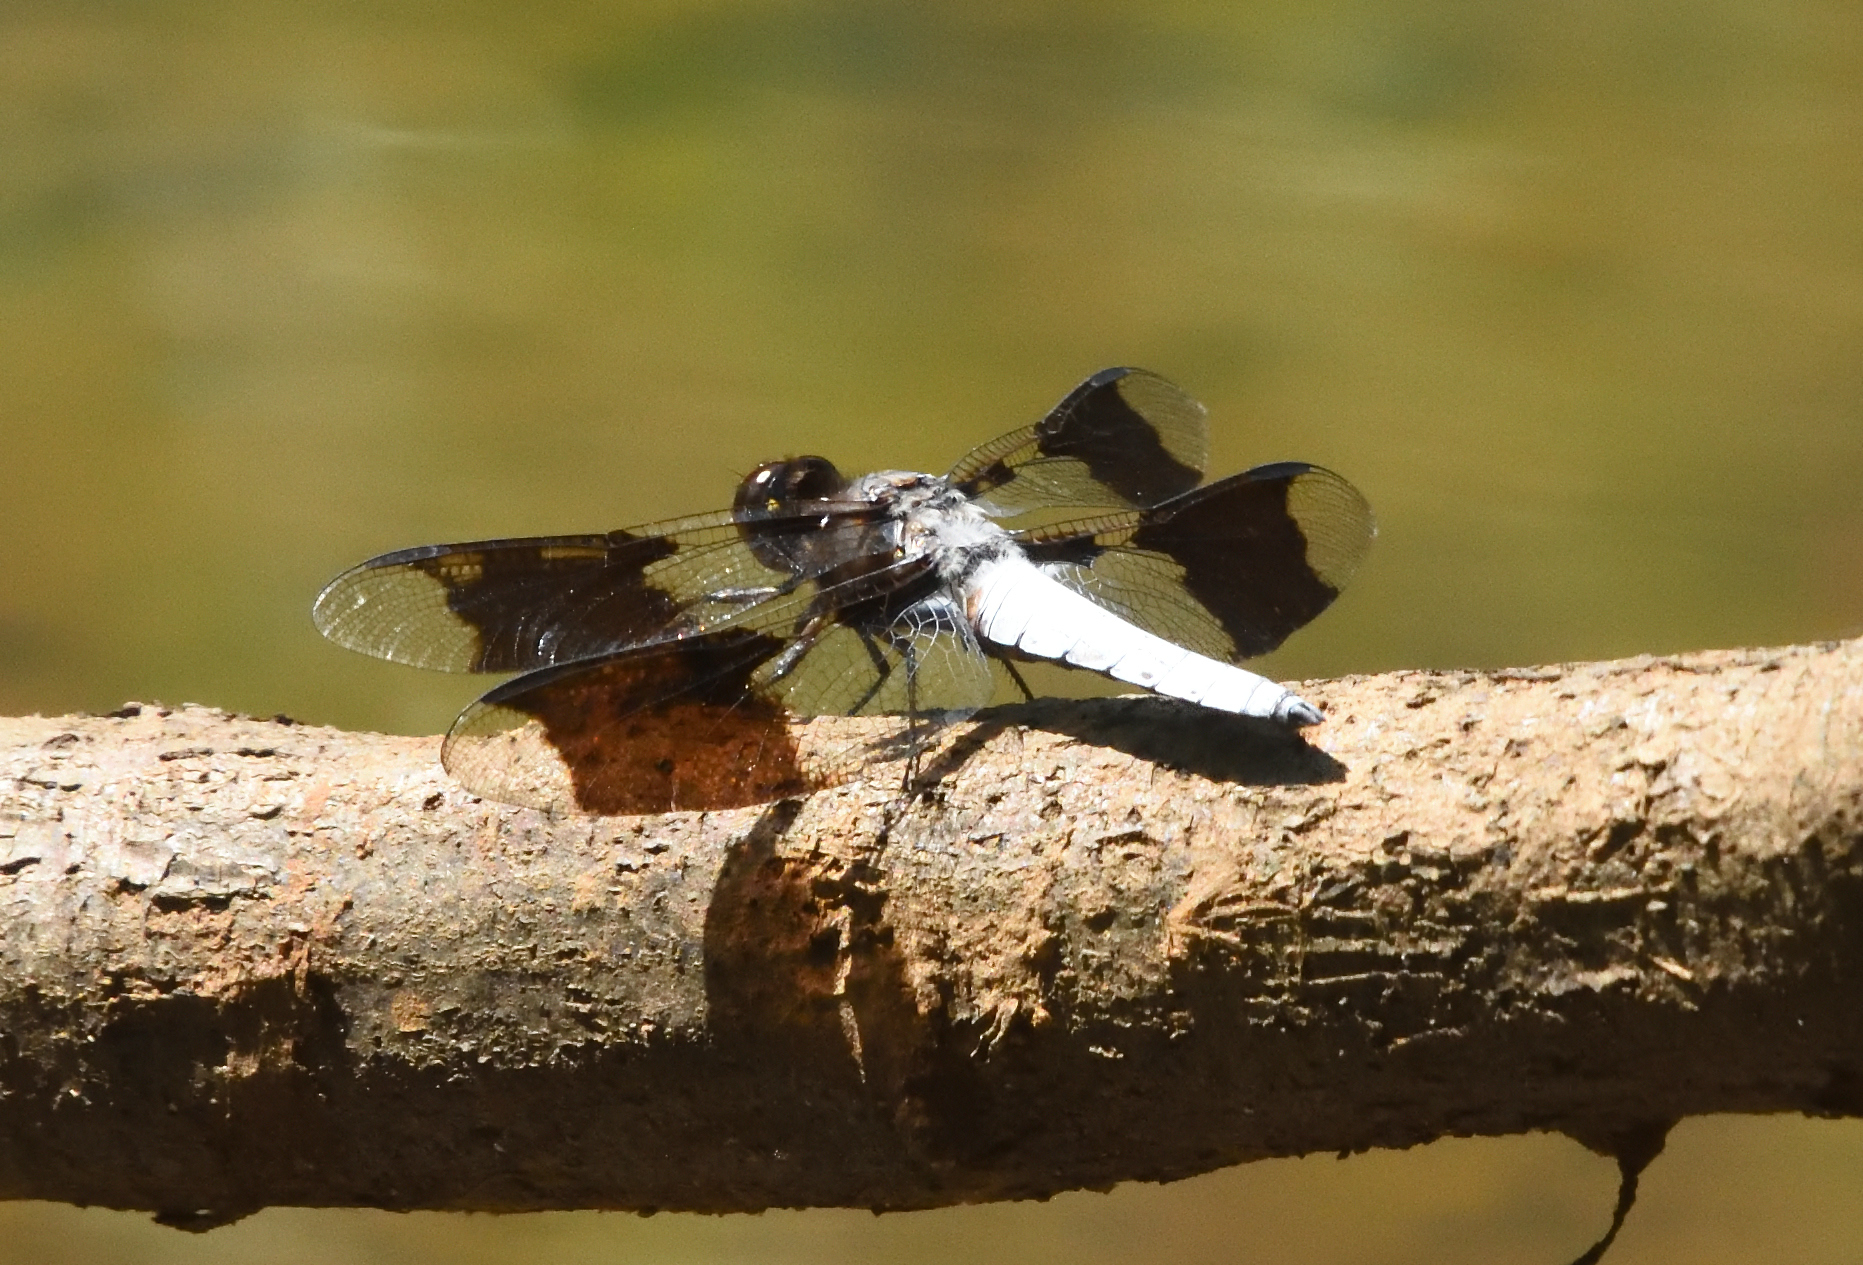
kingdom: Animalia
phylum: Arthropoda
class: Insecta
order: Odonata
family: Libellulidae
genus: Plathemis
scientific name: Plathemis lydia
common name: Common whitetail
